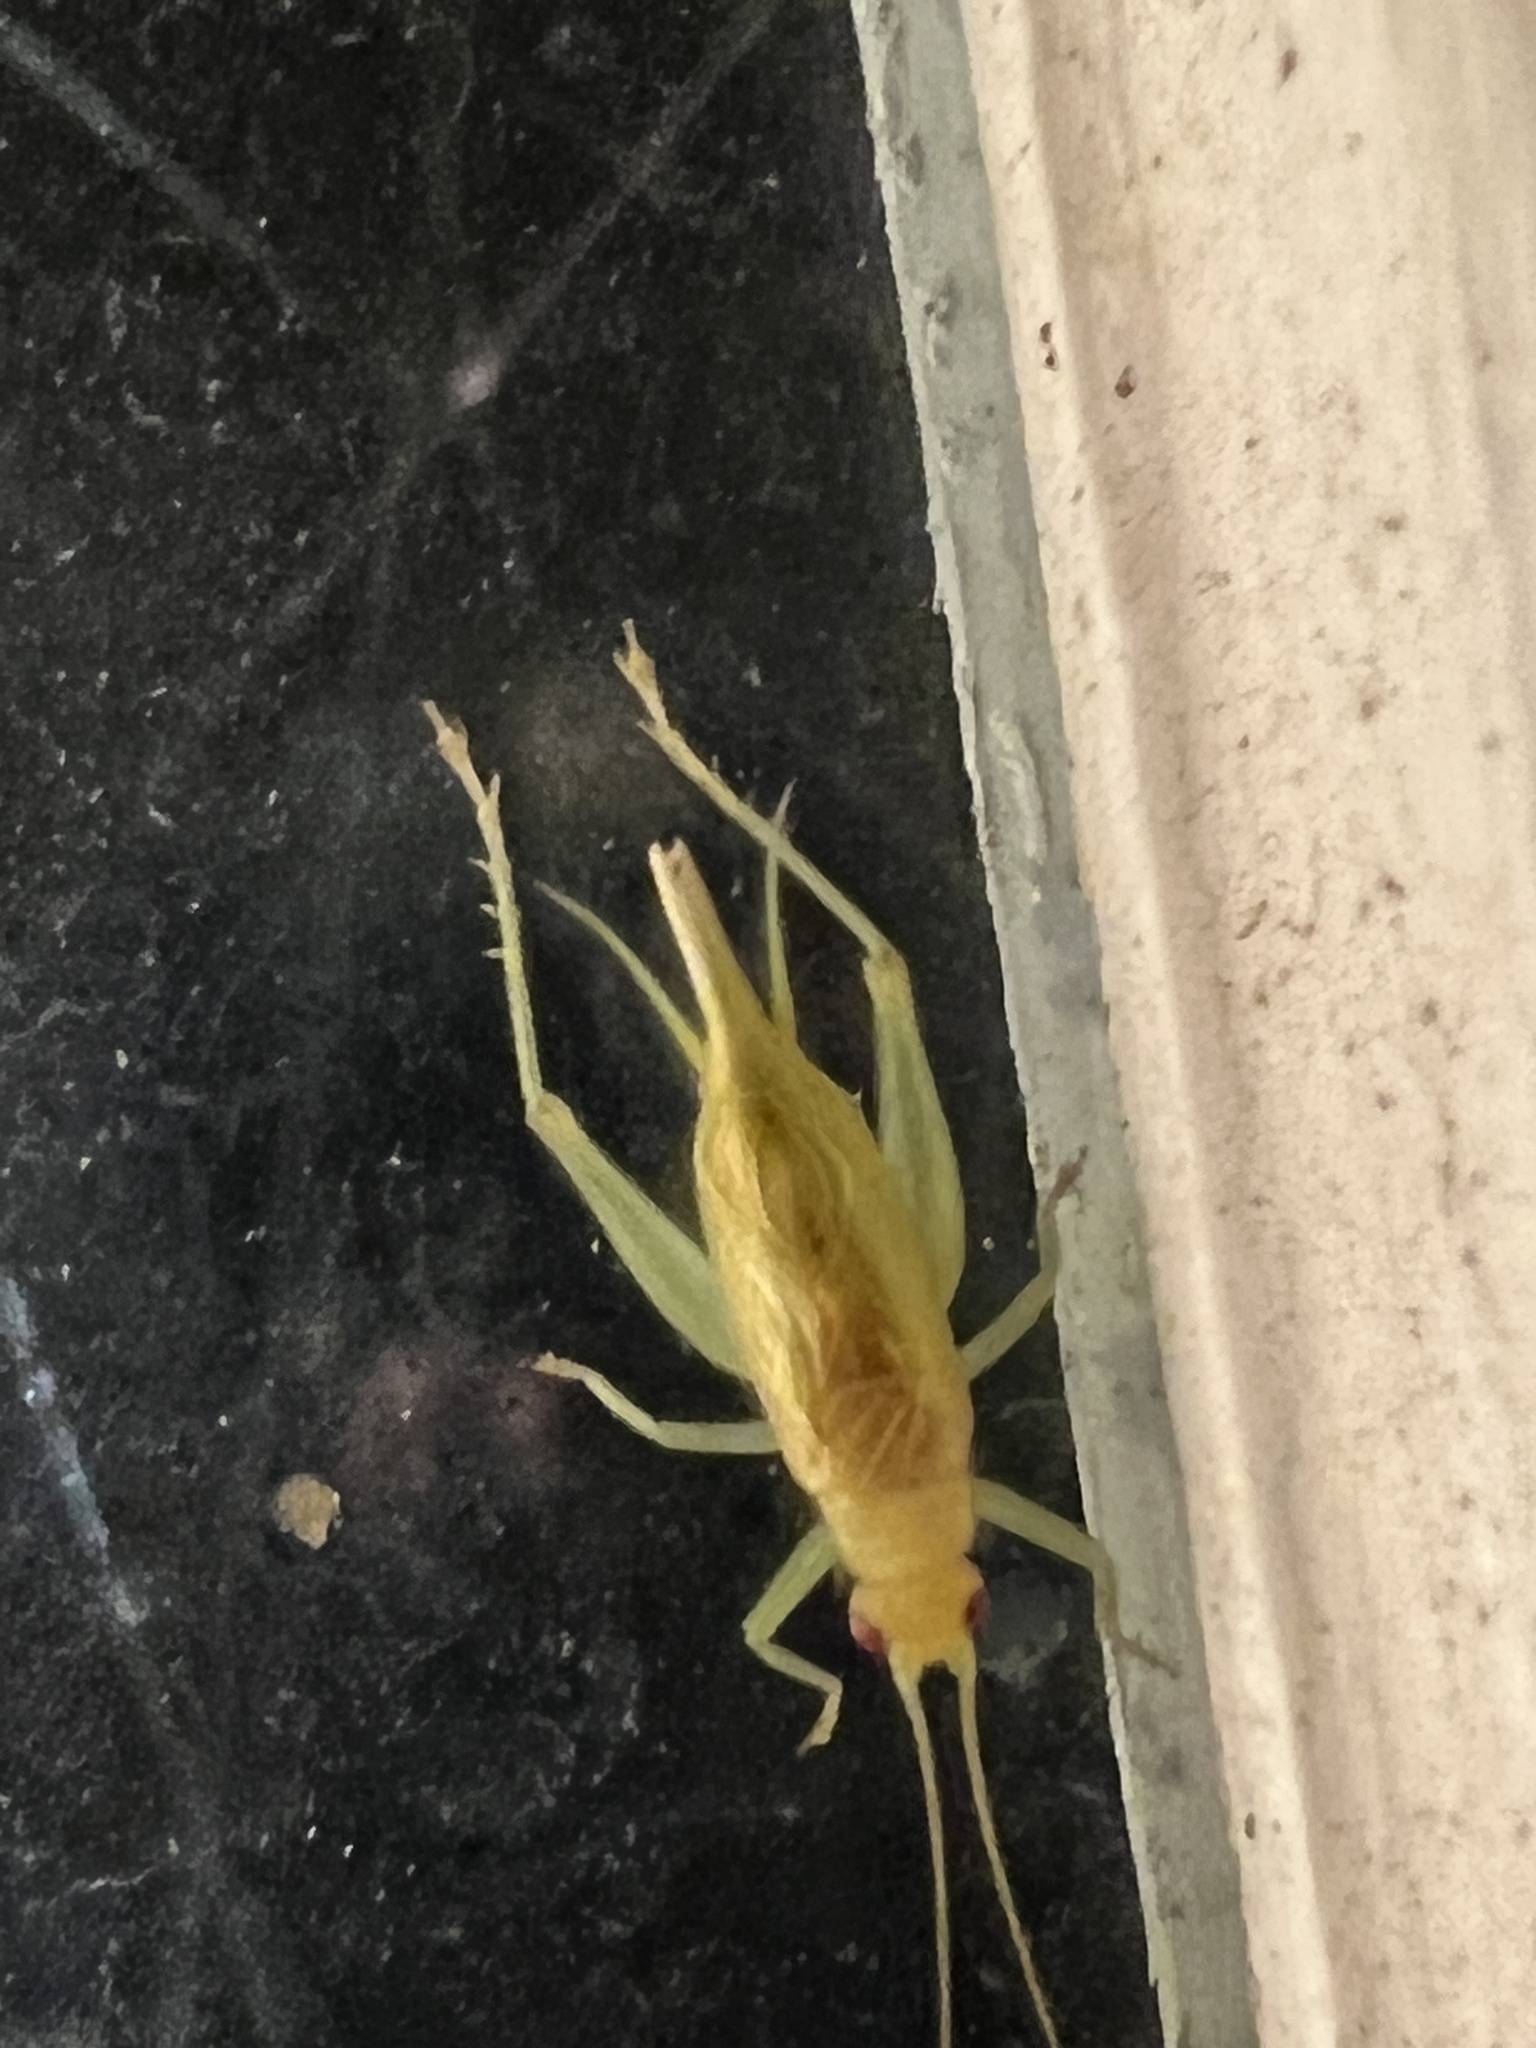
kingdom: Animalia
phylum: Arthropoda
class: Insecta
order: Orthoptera
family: Trigonidiidae
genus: Cyrtoxipha
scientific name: Cyrtoxipha columbiana
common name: Columbian trig
